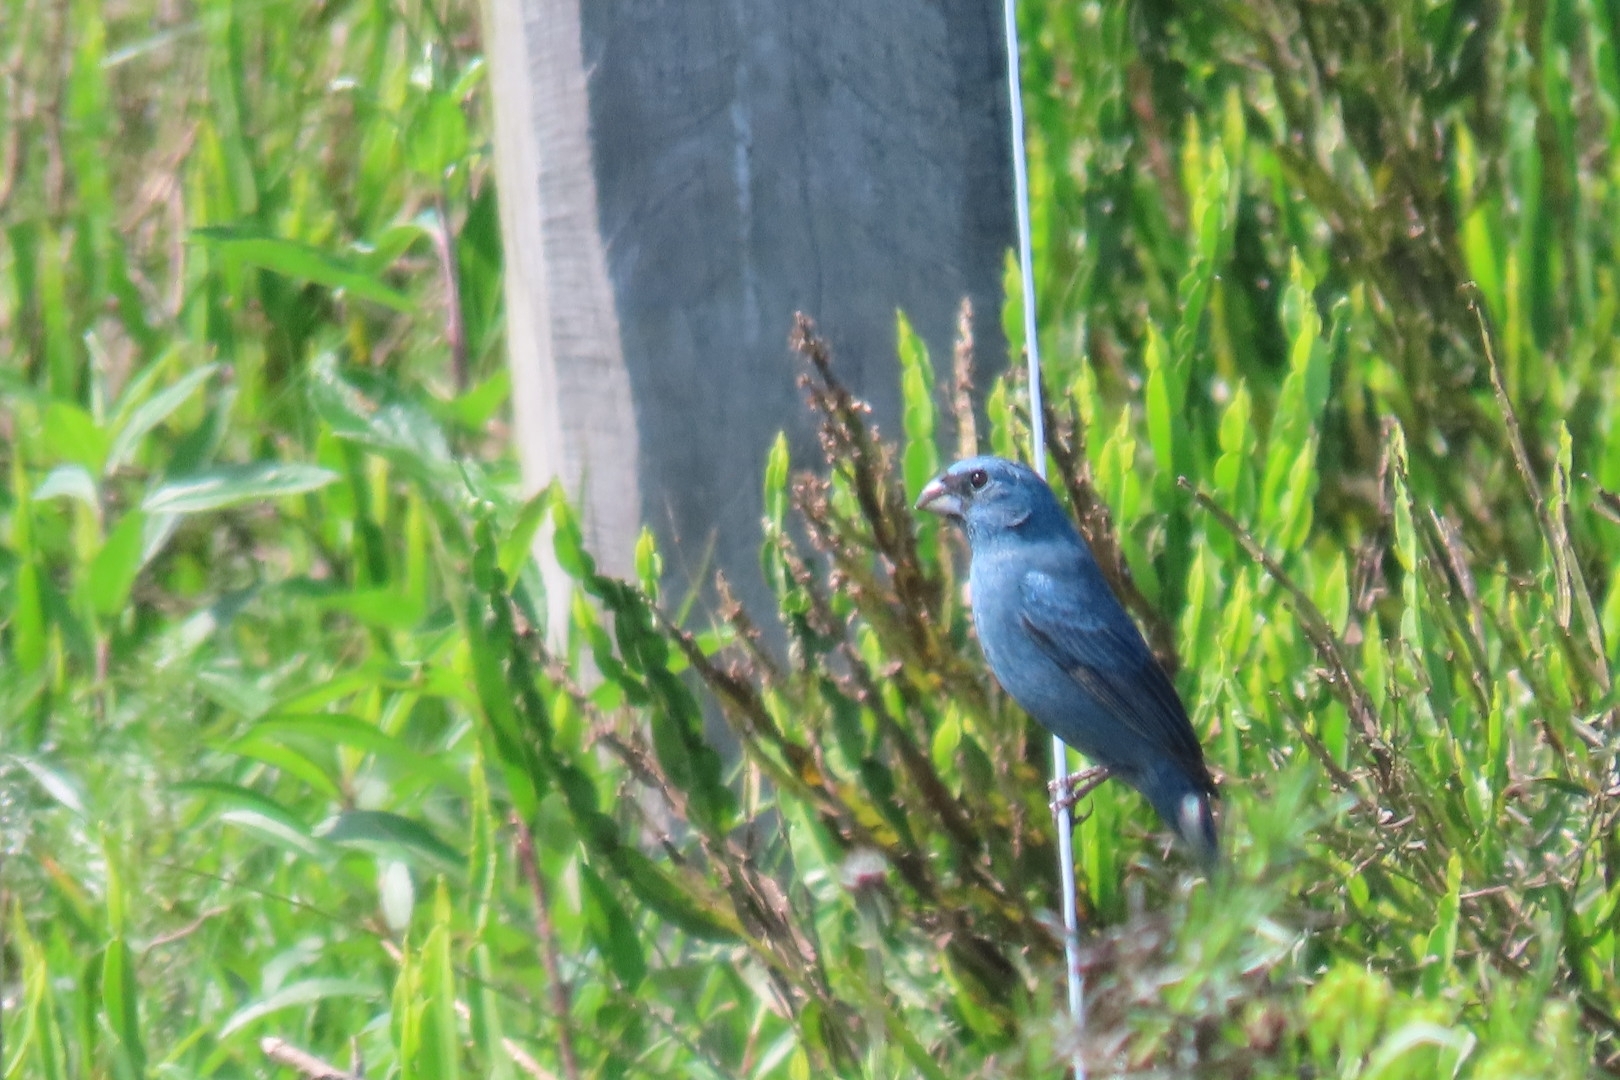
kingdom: Animalia
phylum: Chordata
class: Aves
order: Passeriformes
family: Cardinalidae
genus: Cyanoloxia
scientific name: Cyanoloxia glaucocaerulea
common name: Glaucous-blue grosbeak
